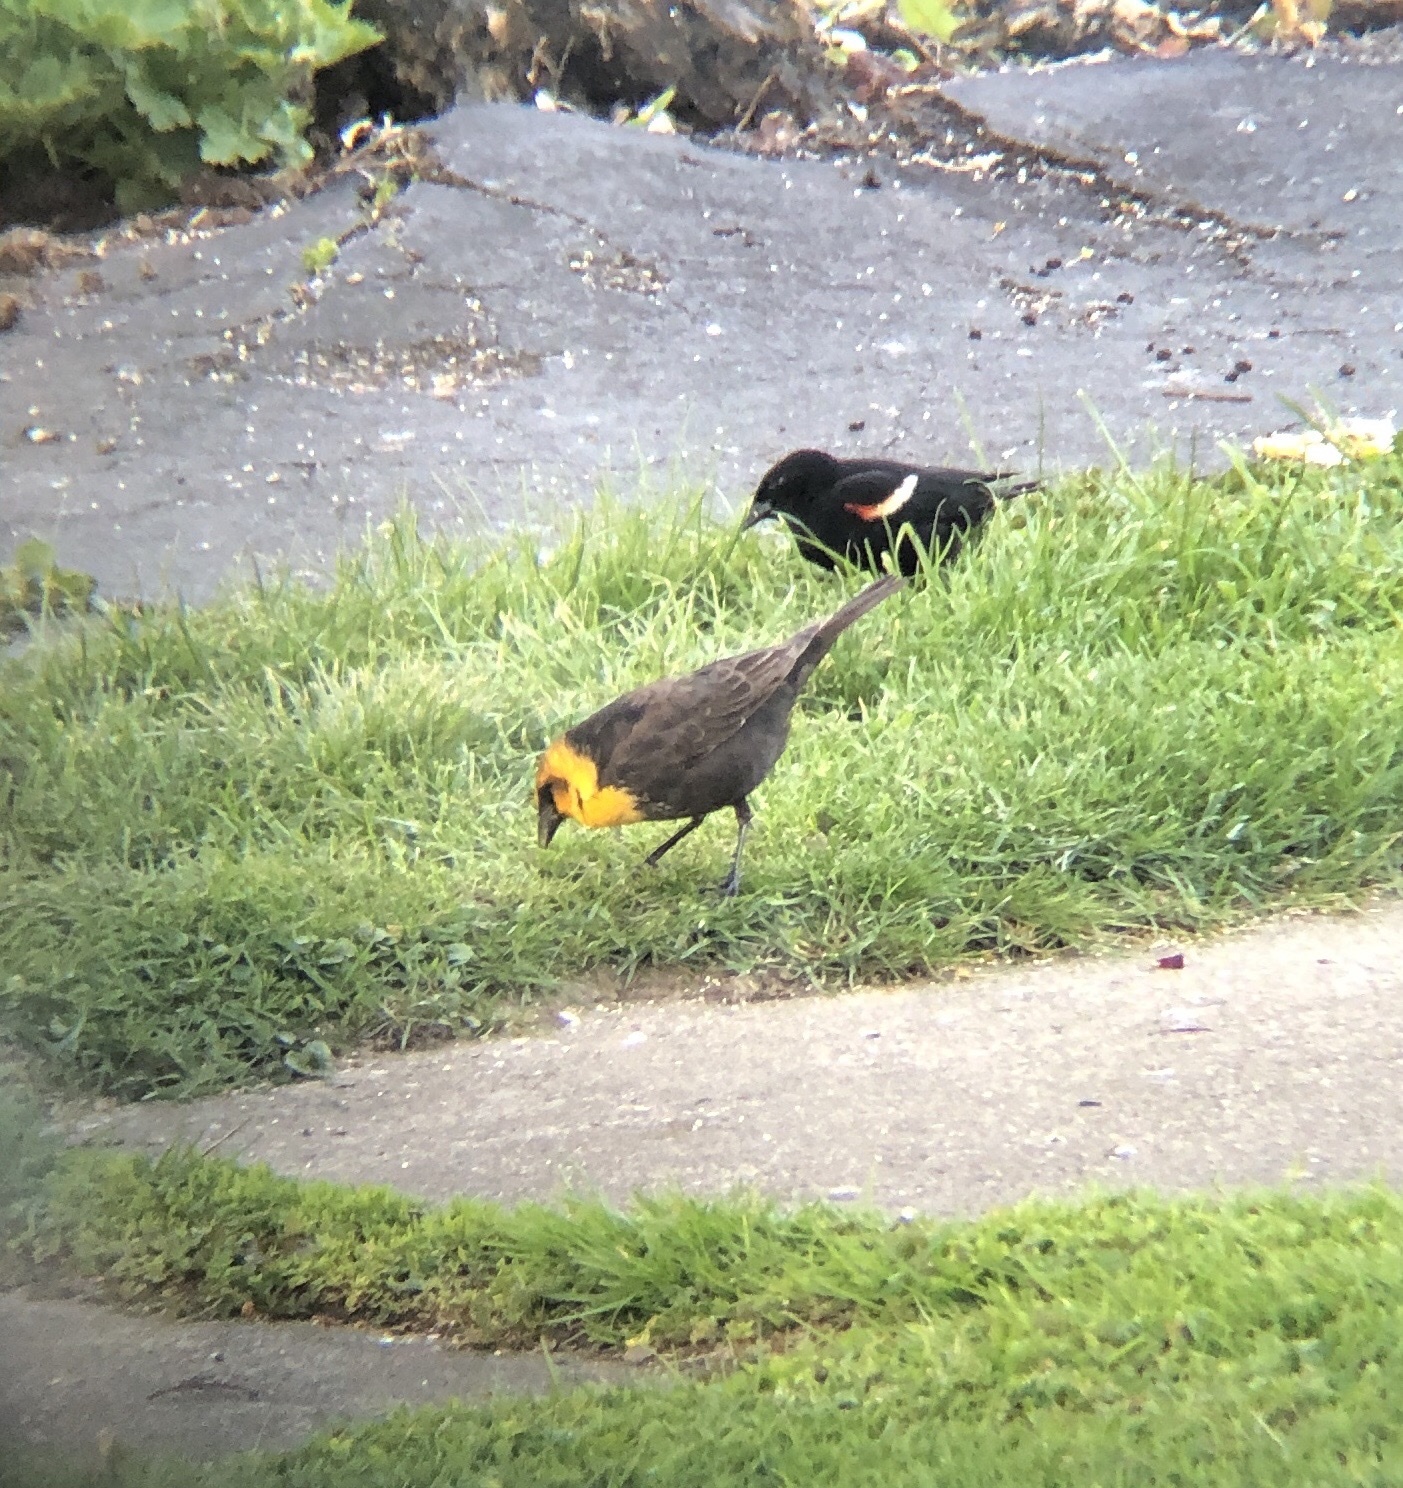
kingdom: Animalia
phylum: Chordata
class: Aves
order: Passeriformes
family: Icteridae
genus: Xanthocephalus
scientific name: Xanthocephalus xanthocephalus
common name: Yellow-headed blackbird
